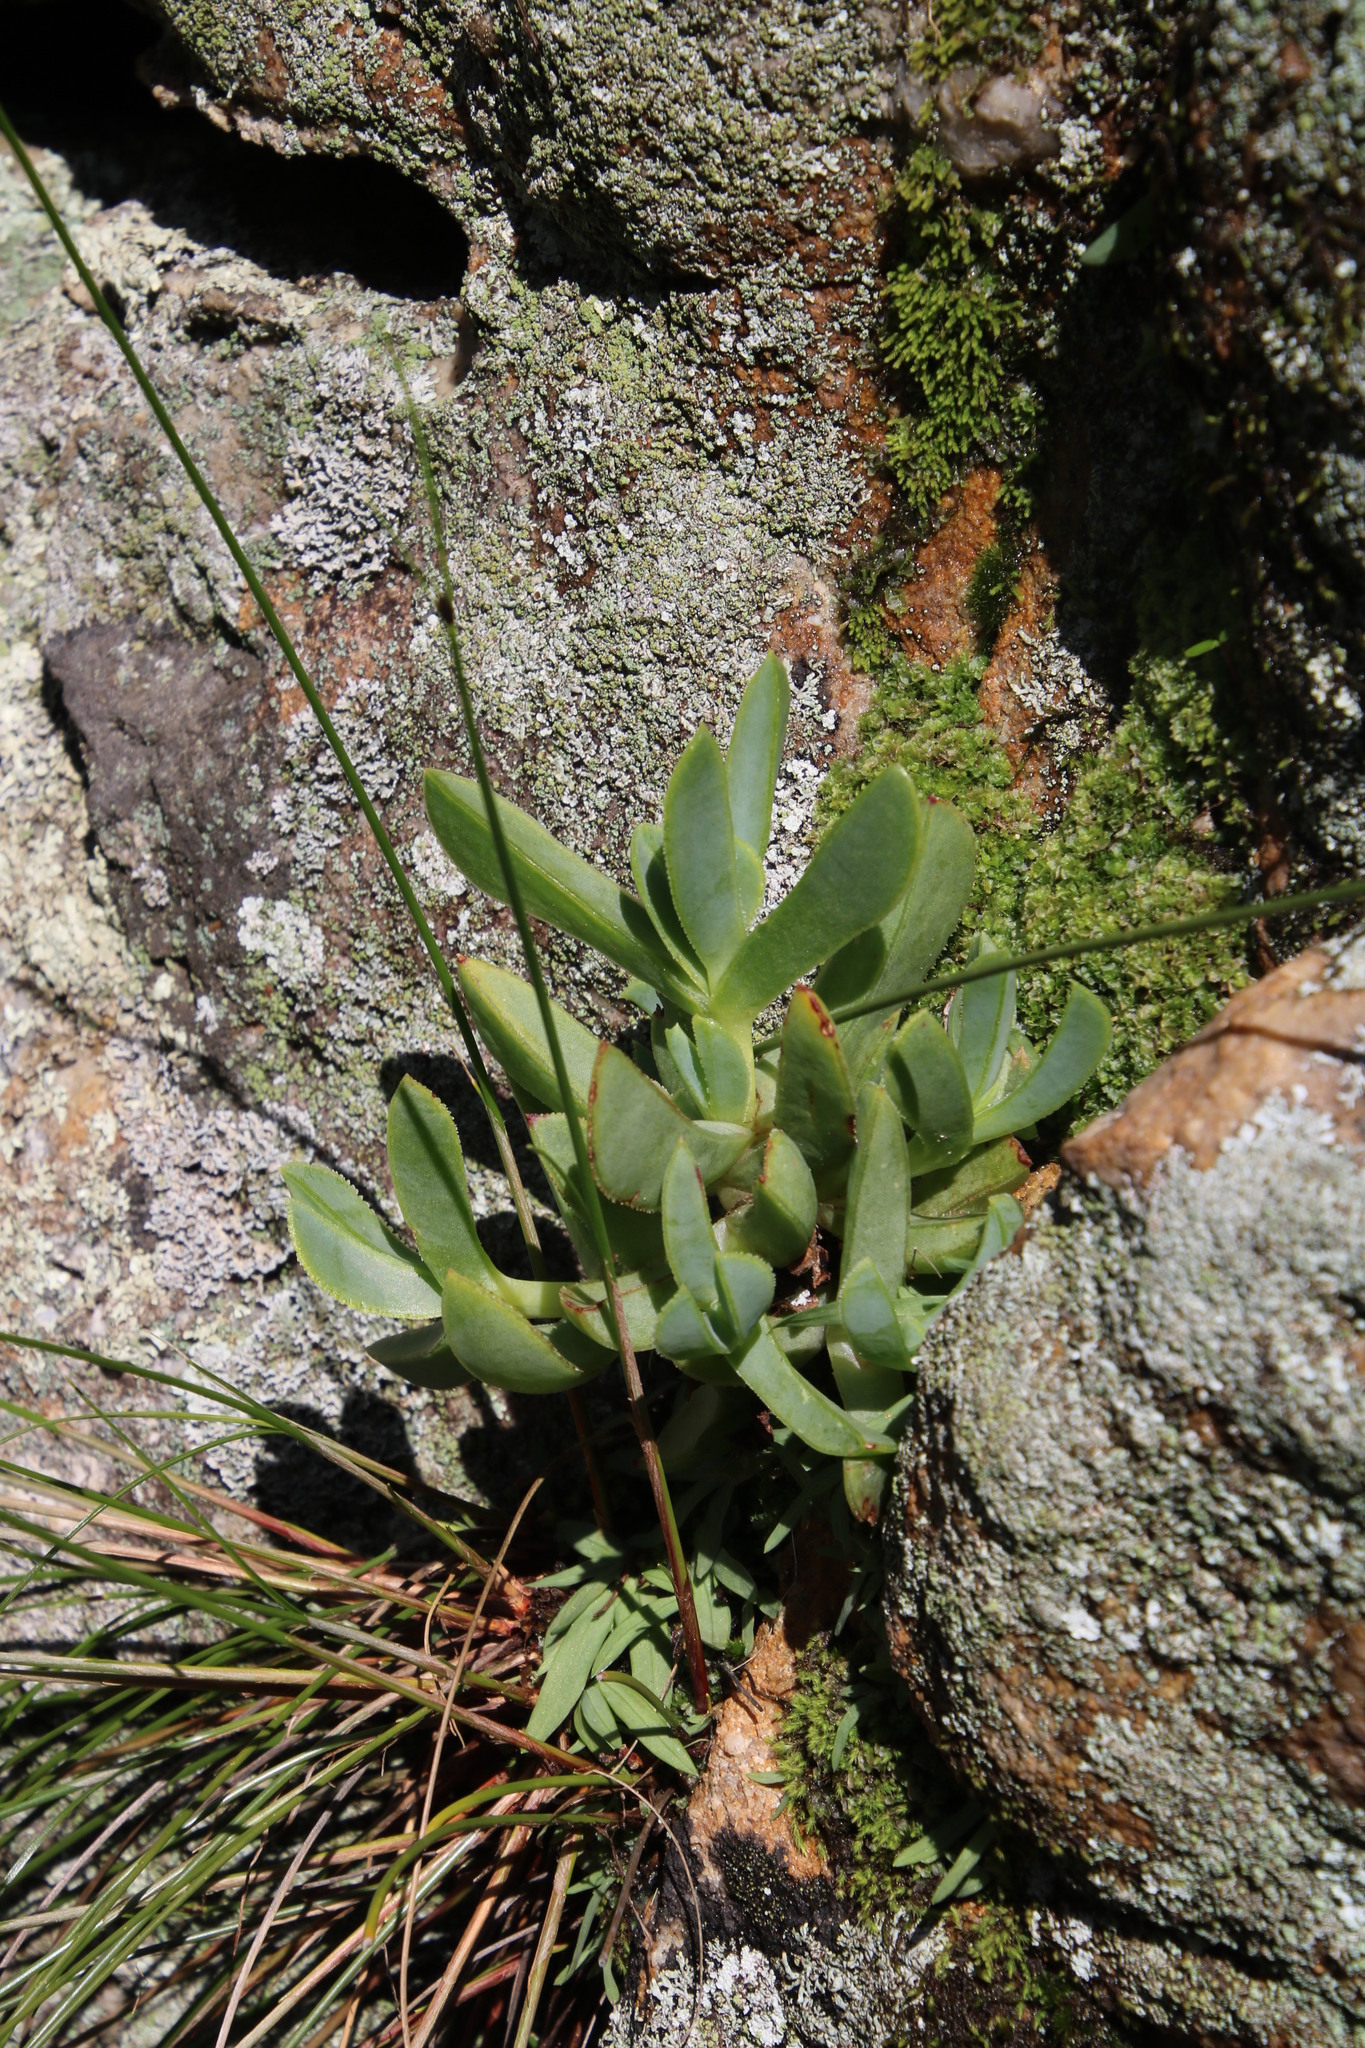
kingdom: Plantae
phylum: Tracheophyta
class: Magnoliopsida
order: Caryophyllales
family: Aizoaceae
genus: Erepsia
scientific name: Erepsia lacera
